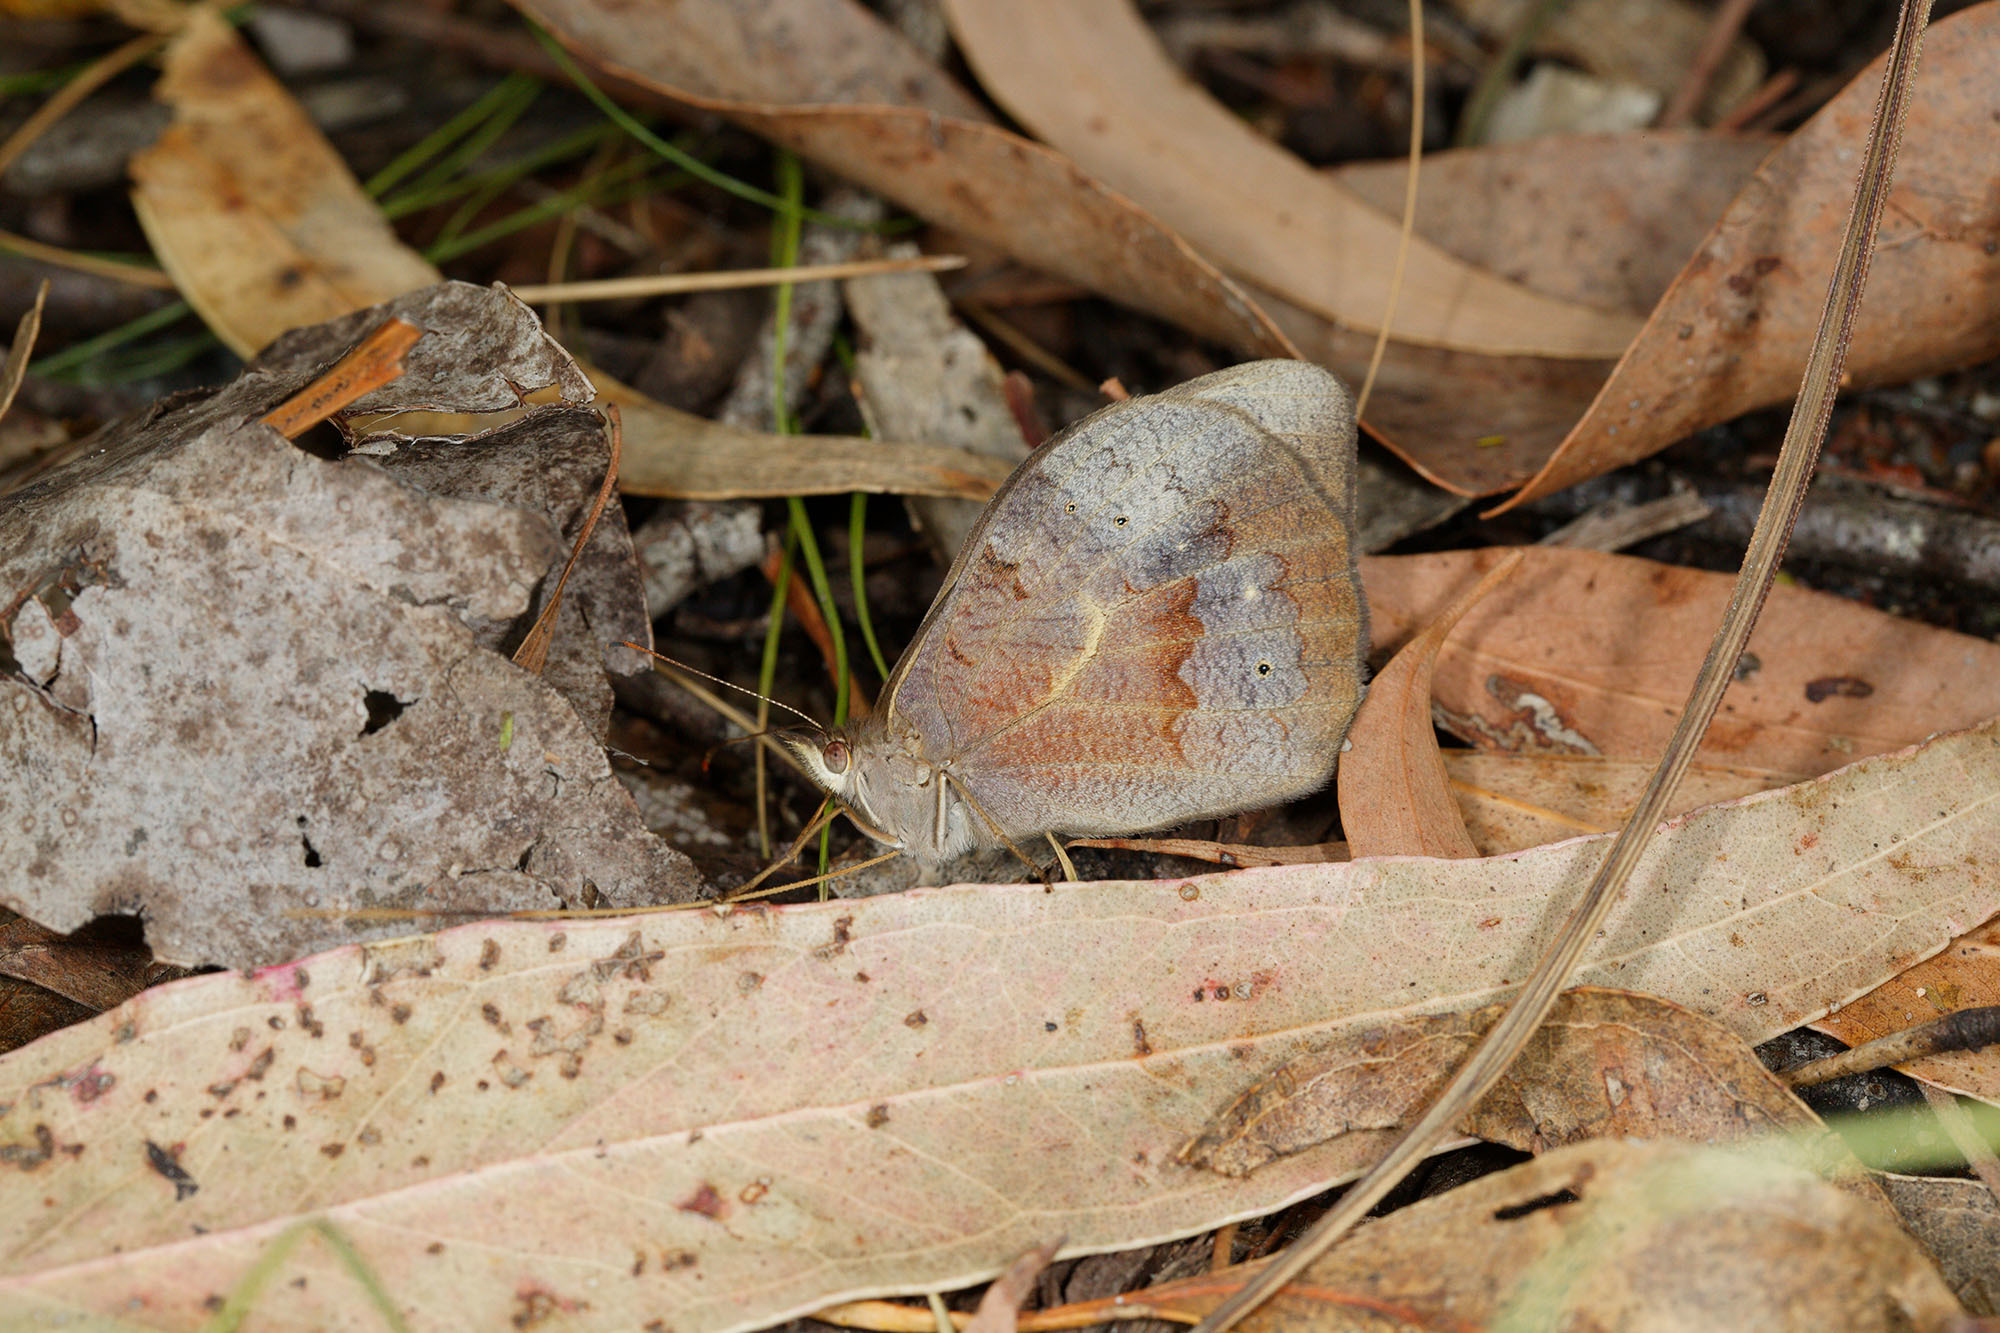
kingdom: Animalia
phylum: Arthropoda
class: Insecta
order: Lepidoptera
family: Nymphalidae
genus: Heteronympha
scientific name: Heteronympha merope
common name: Common brown
